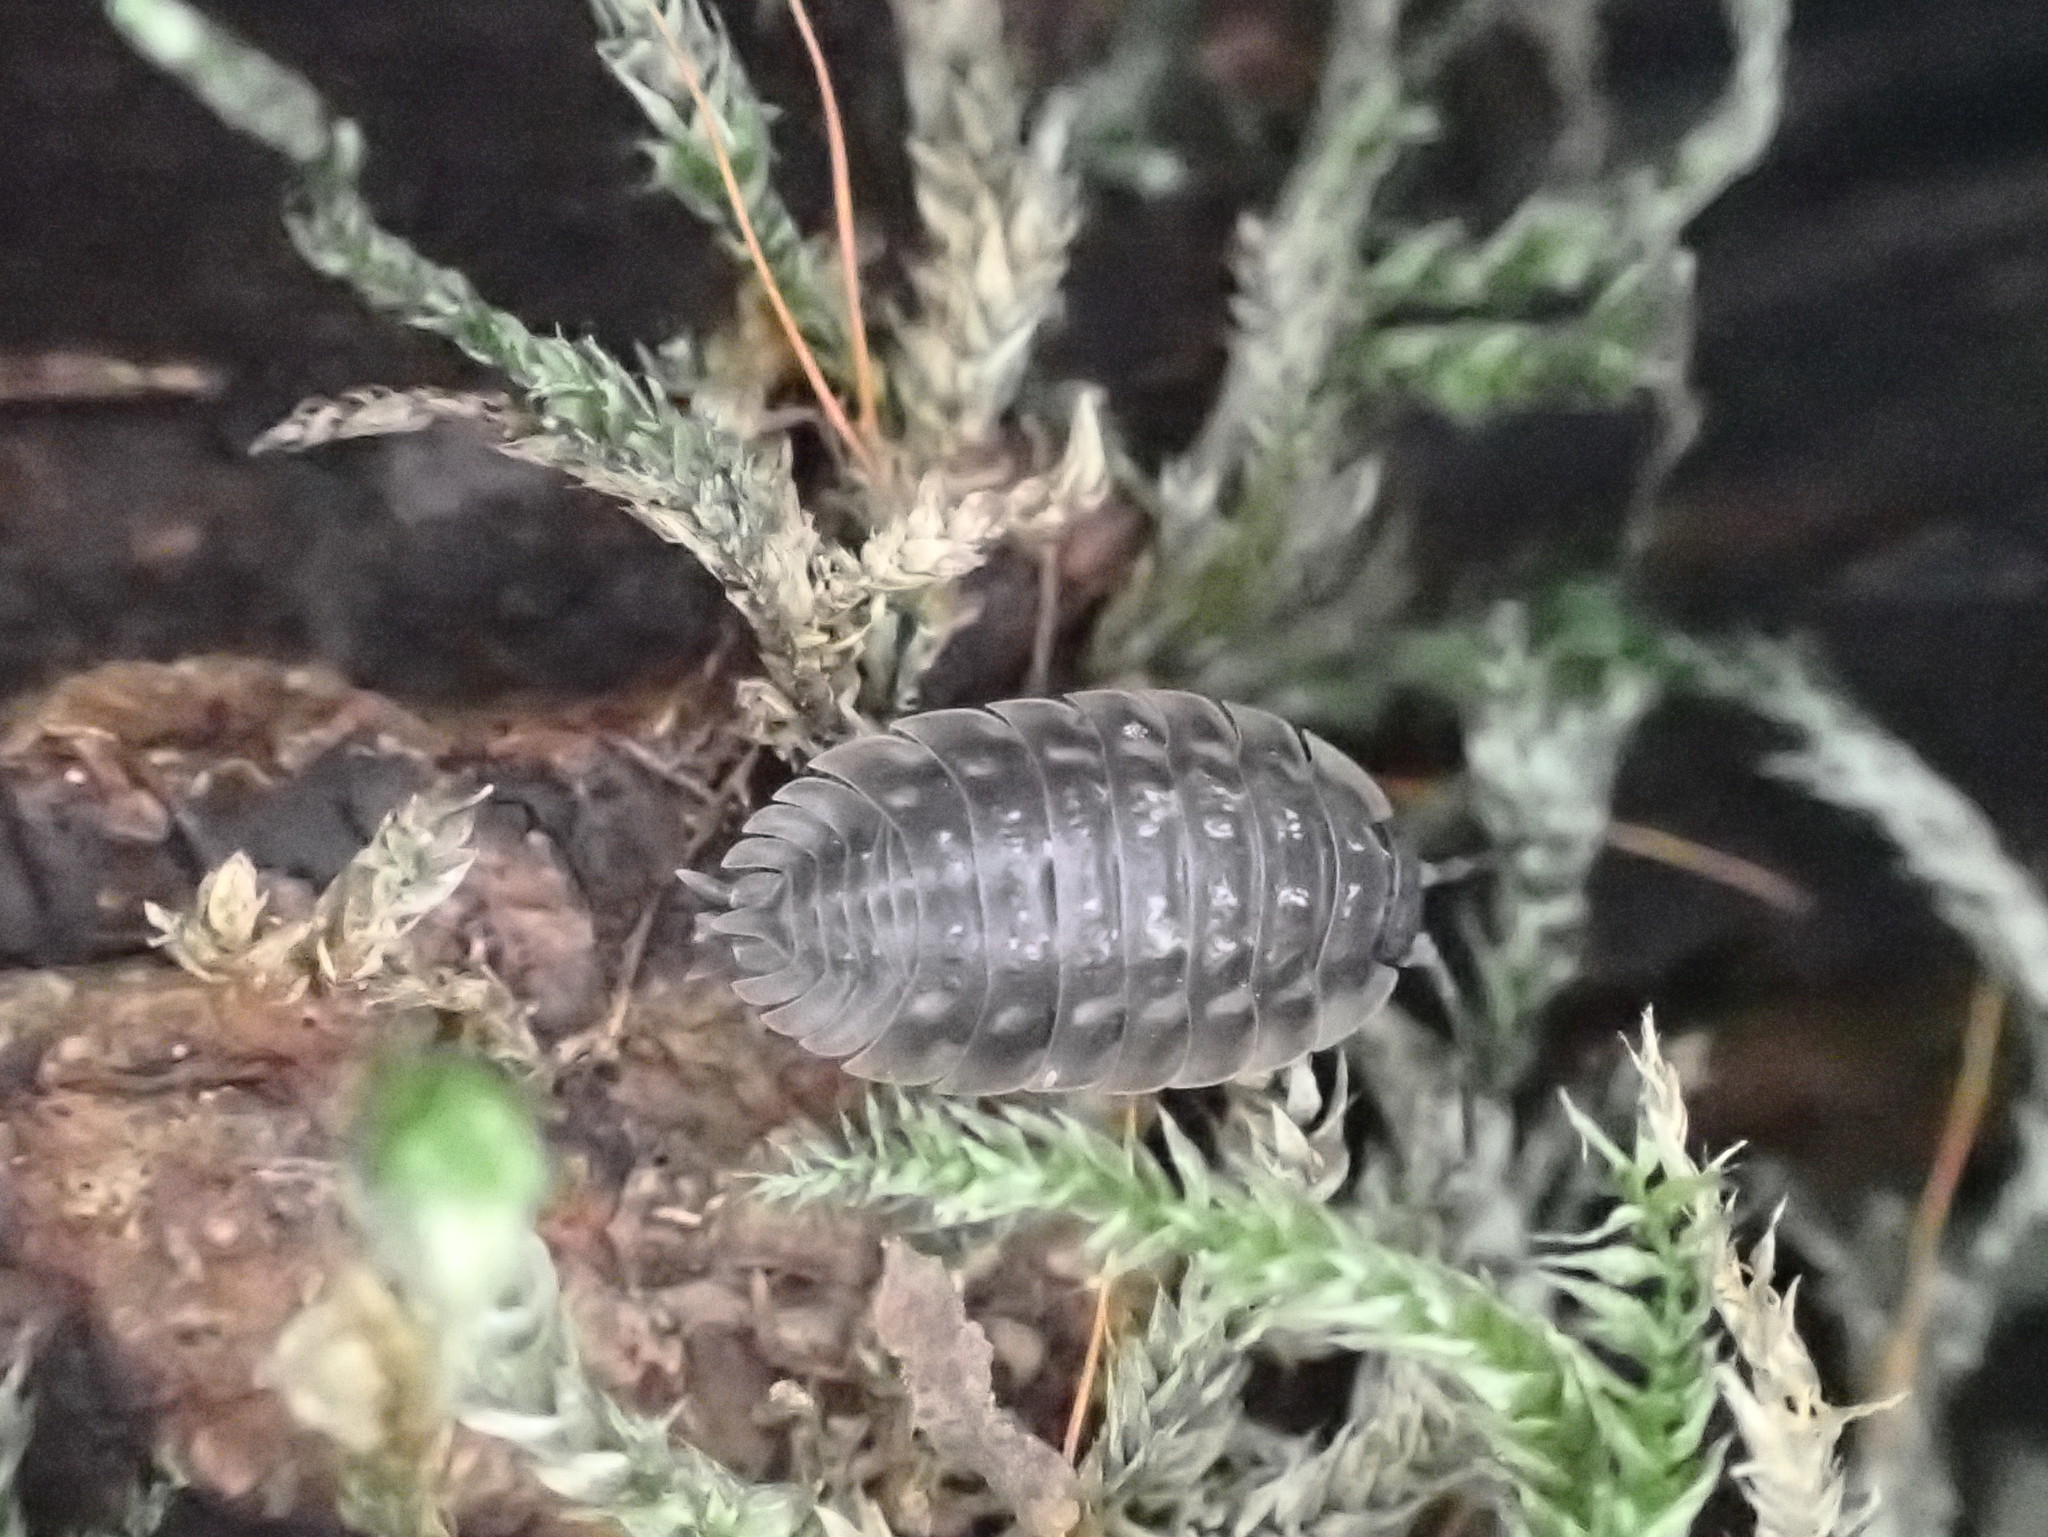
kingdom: Animalia
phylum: Arthropoda
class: Malacostraca
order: Isopoda
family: Oniscidae
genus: Oniscus
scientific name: Oniscus asellus
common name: Common shiny woodlouse
